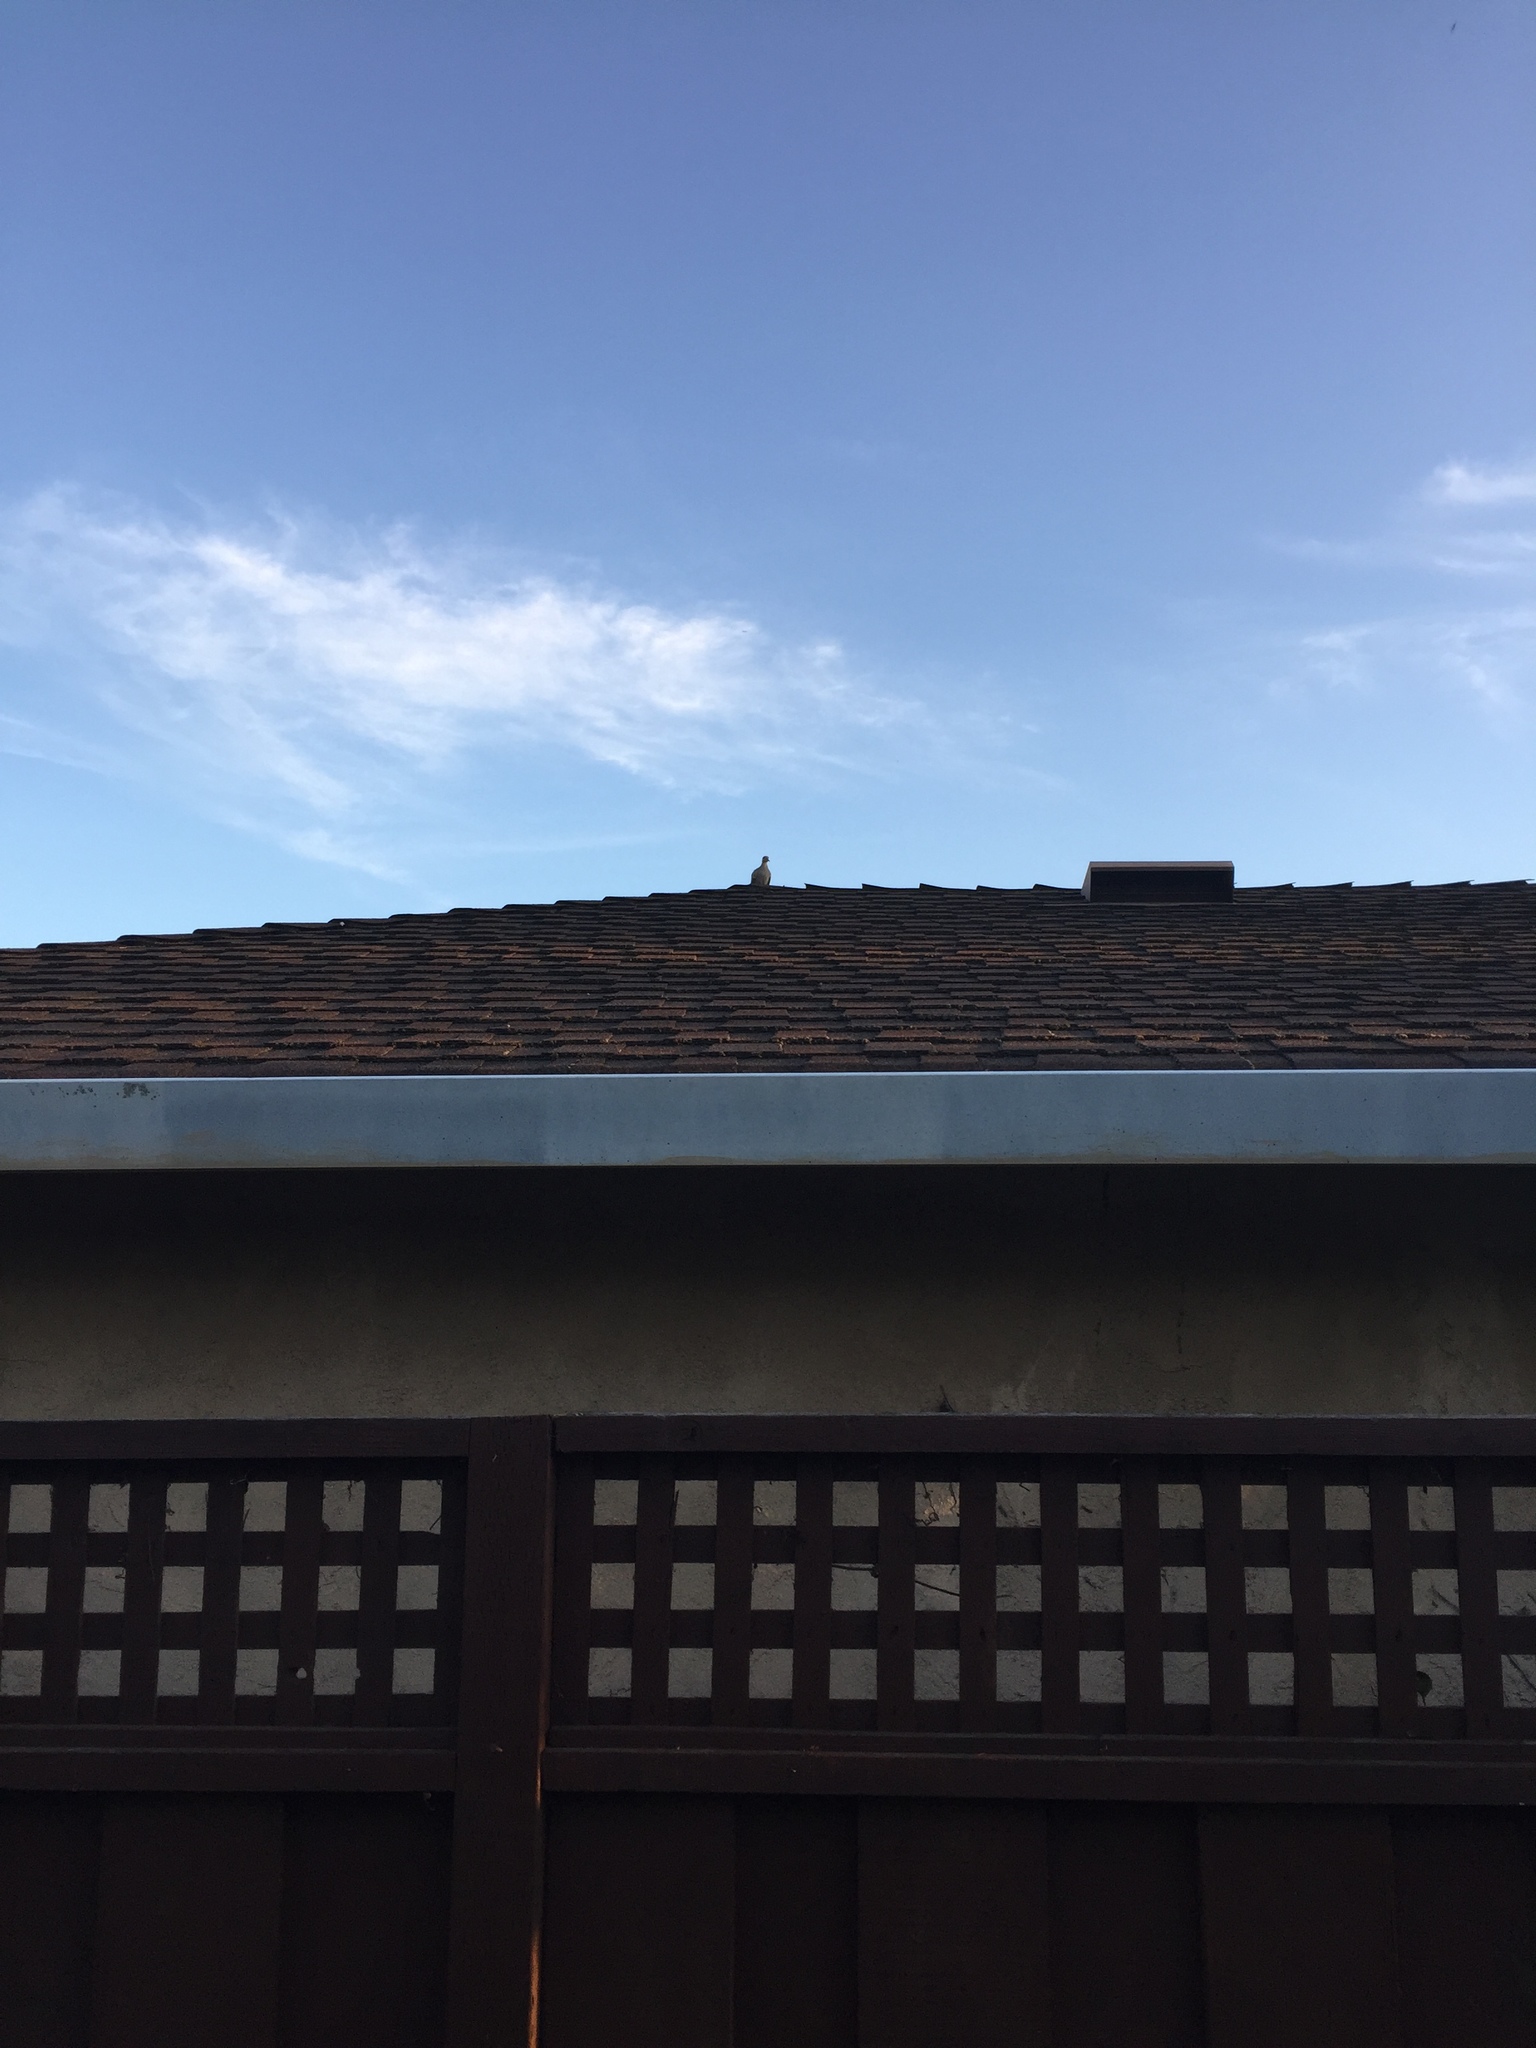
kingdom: Animalia
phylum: Chordata
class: Aves
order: Columbiformes
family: Columbidae
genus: Zenaida
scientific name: Zenaida macroura
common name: Mourning dove
